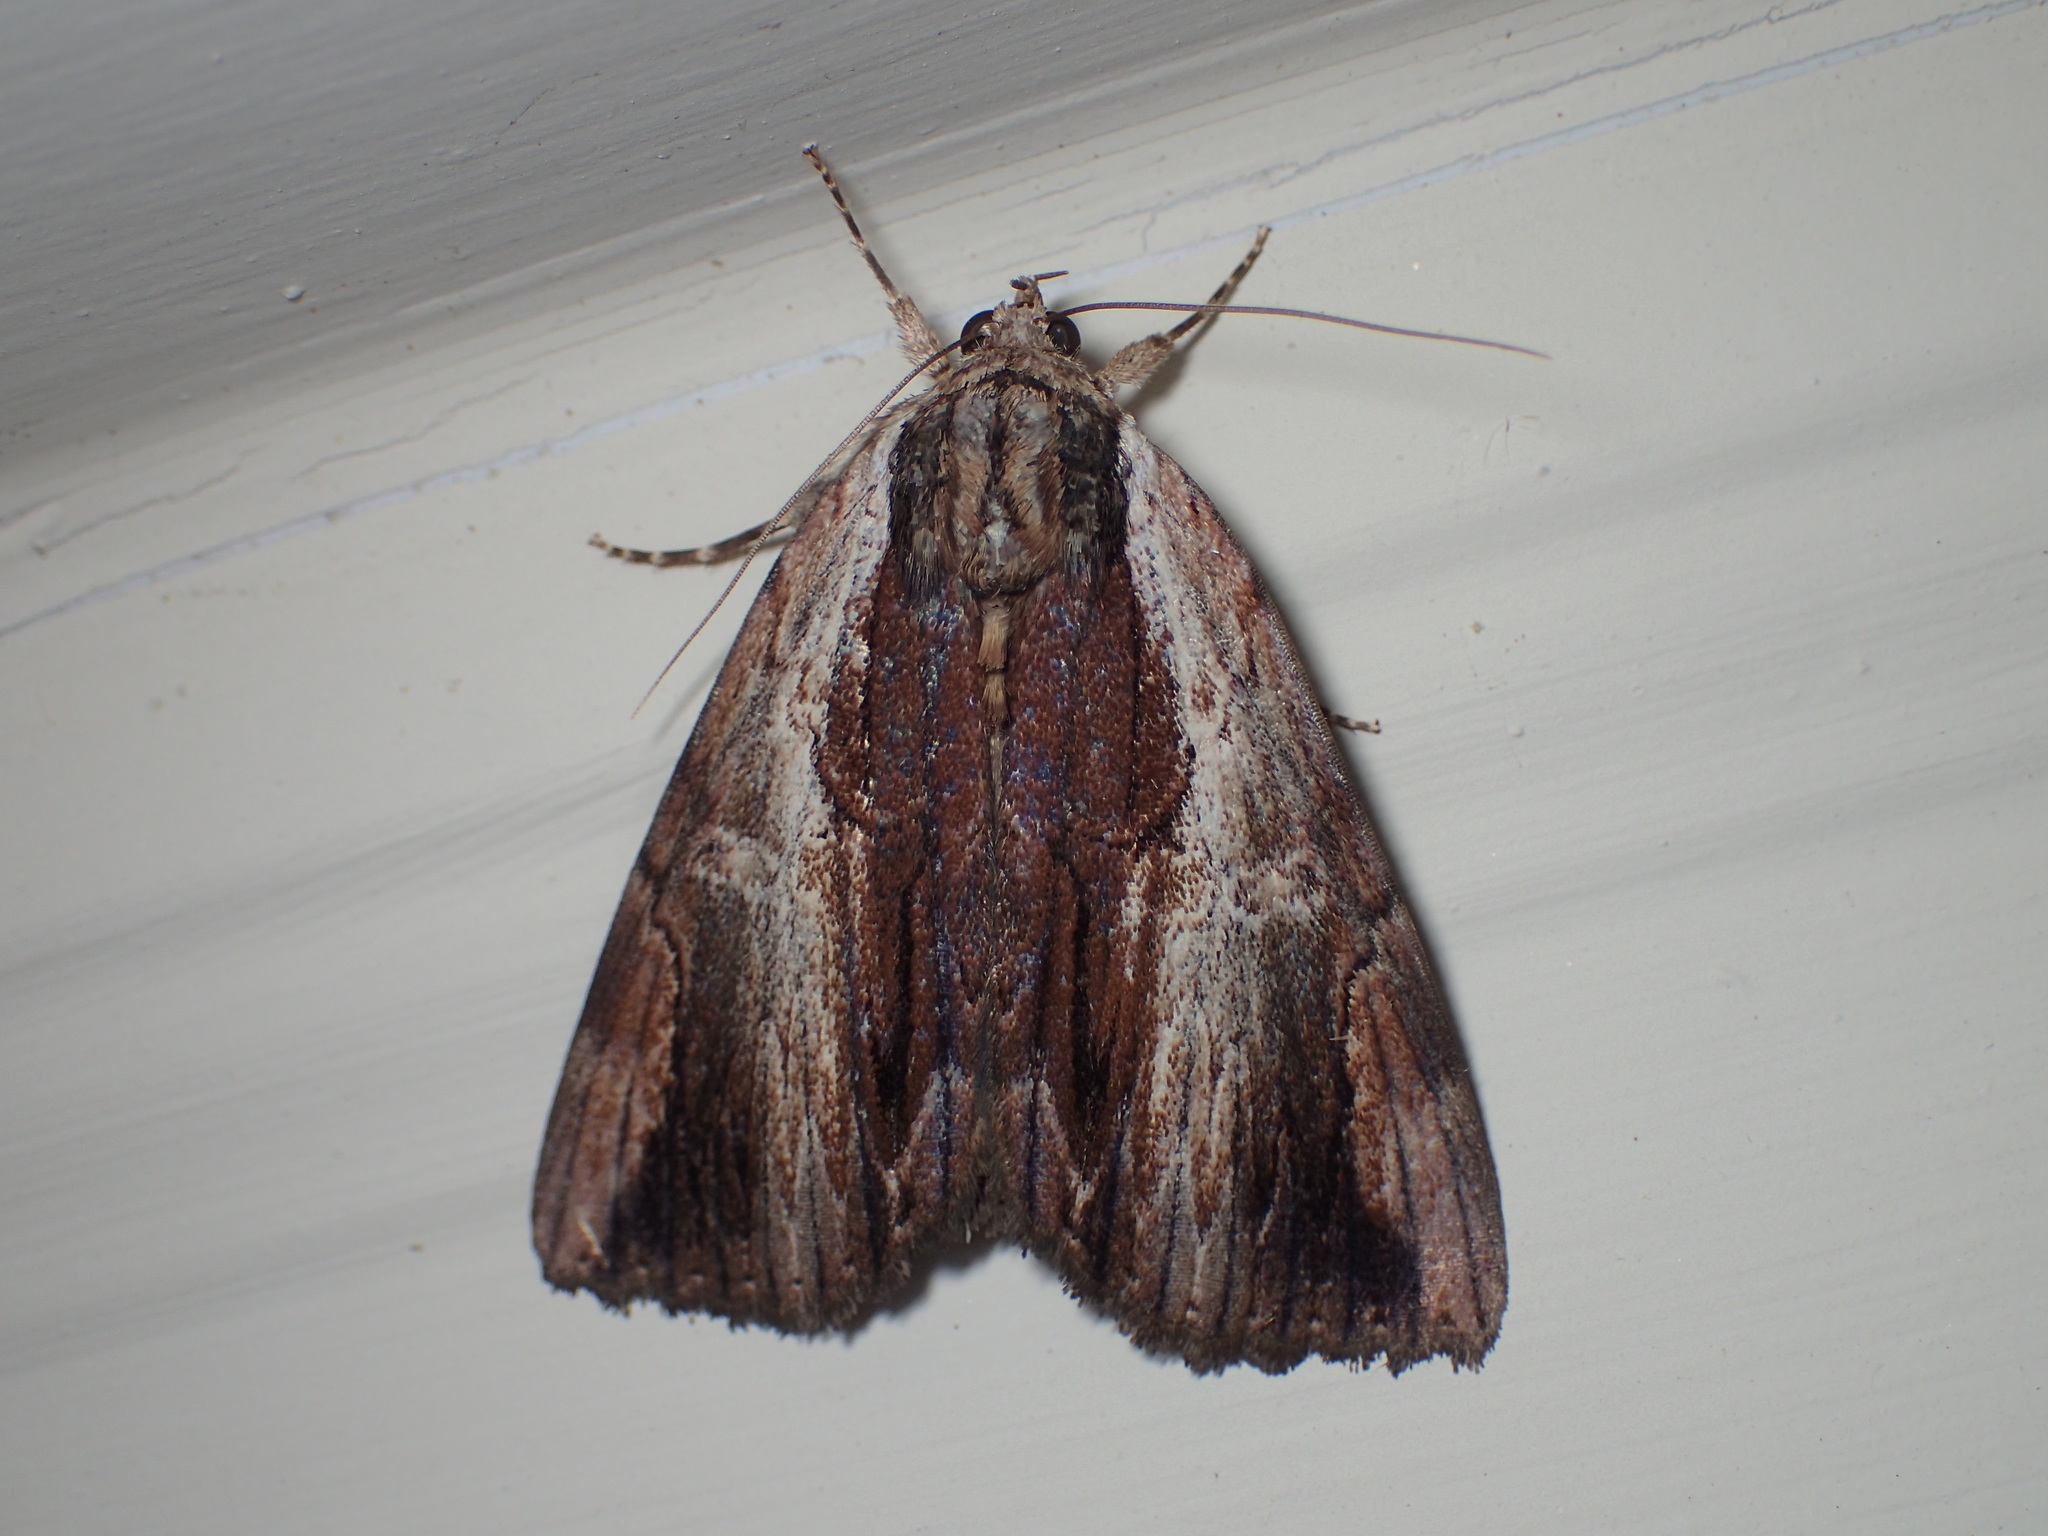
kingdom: Animalia
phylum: Arthropoda
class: Insecta
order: Lepidoptera
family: Erebidae
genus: Catocala
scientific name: Catocala ultronia
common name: Ultronia underwing
